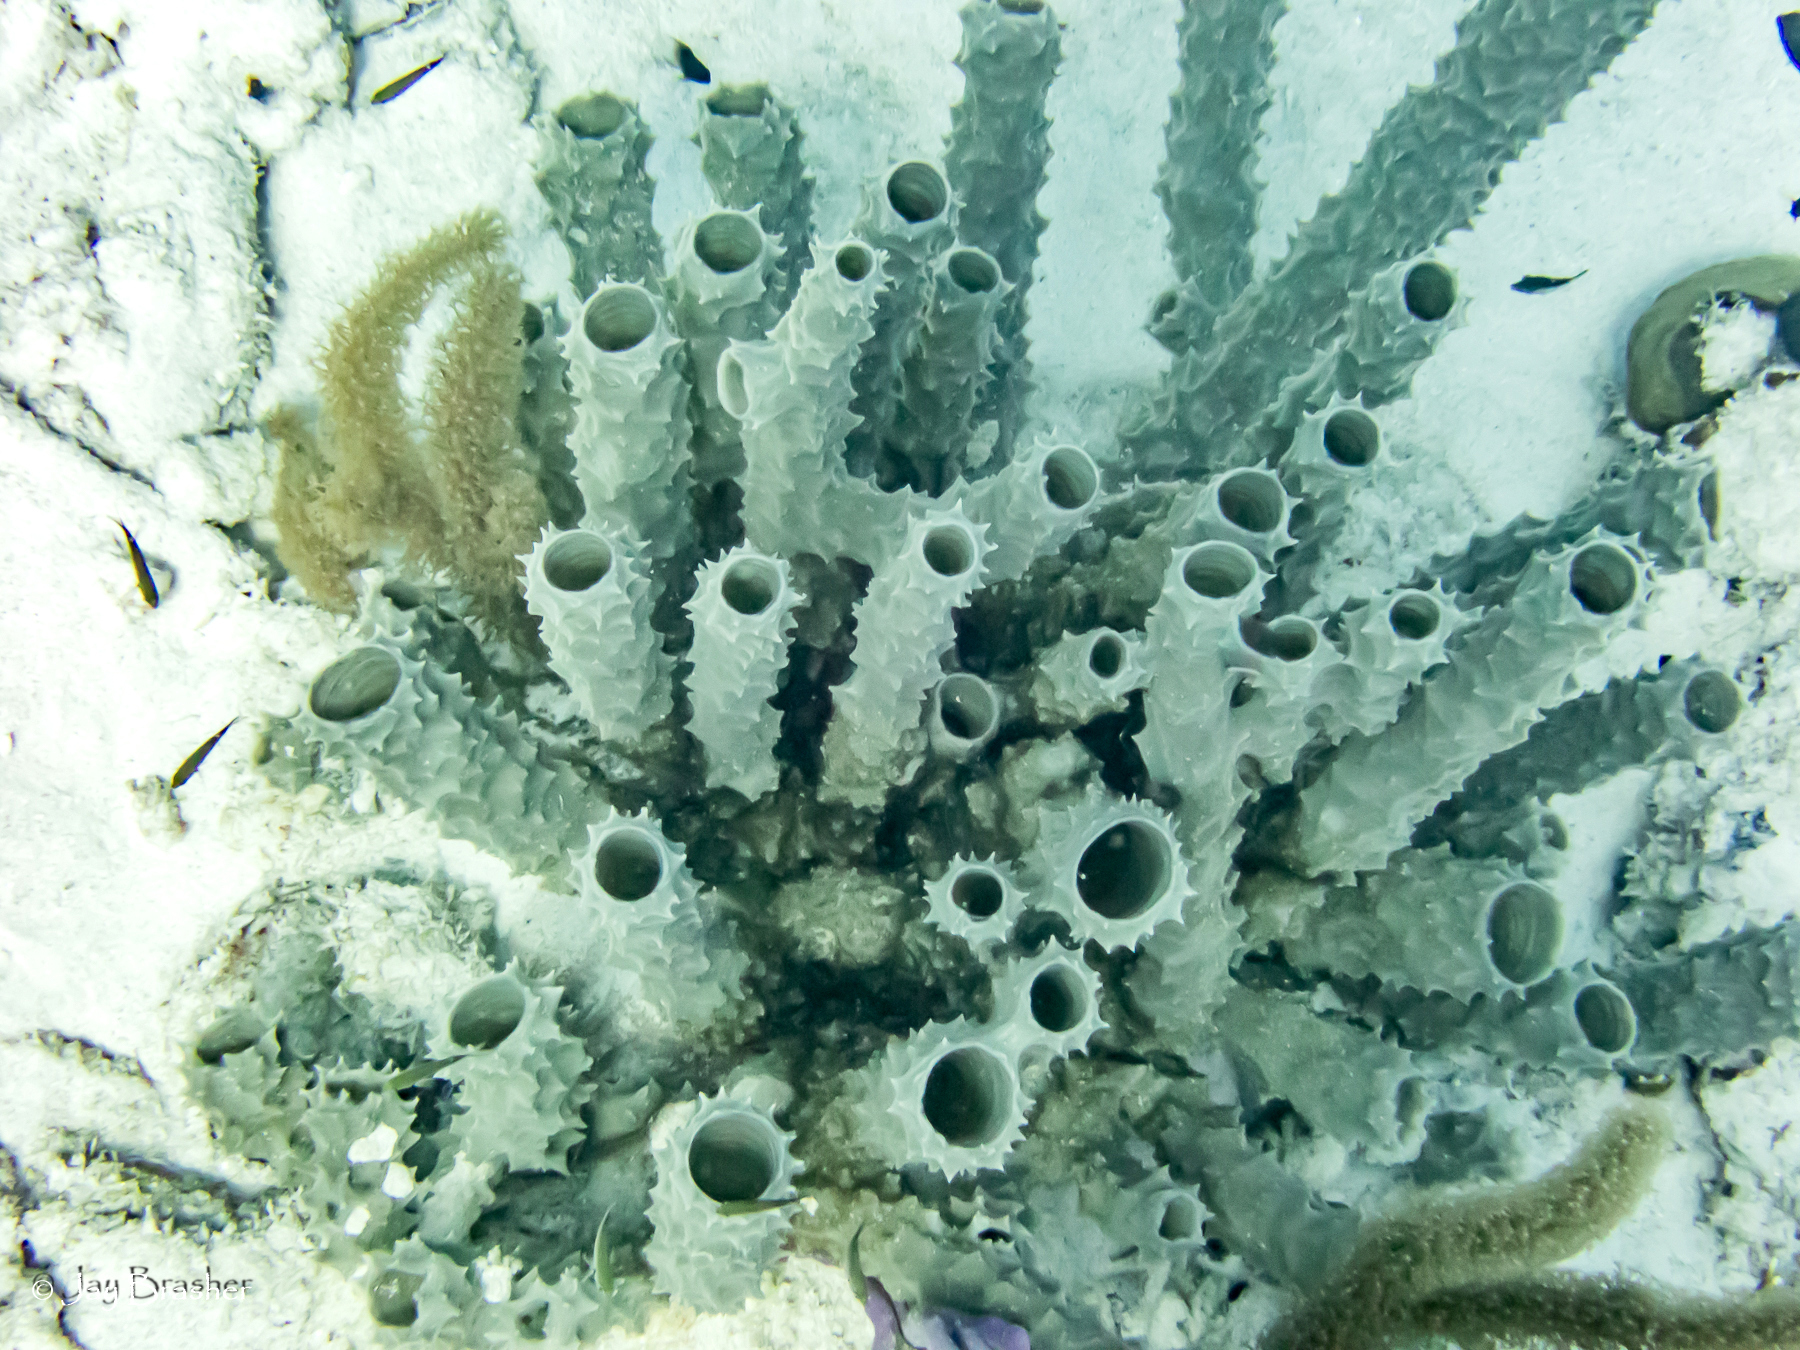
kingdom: Animalia
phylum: Porifera
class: Demospongiae
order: Haplosclerida
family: Callyspongiidae
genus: Callyspongia
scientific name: Callyspongia aculeata
